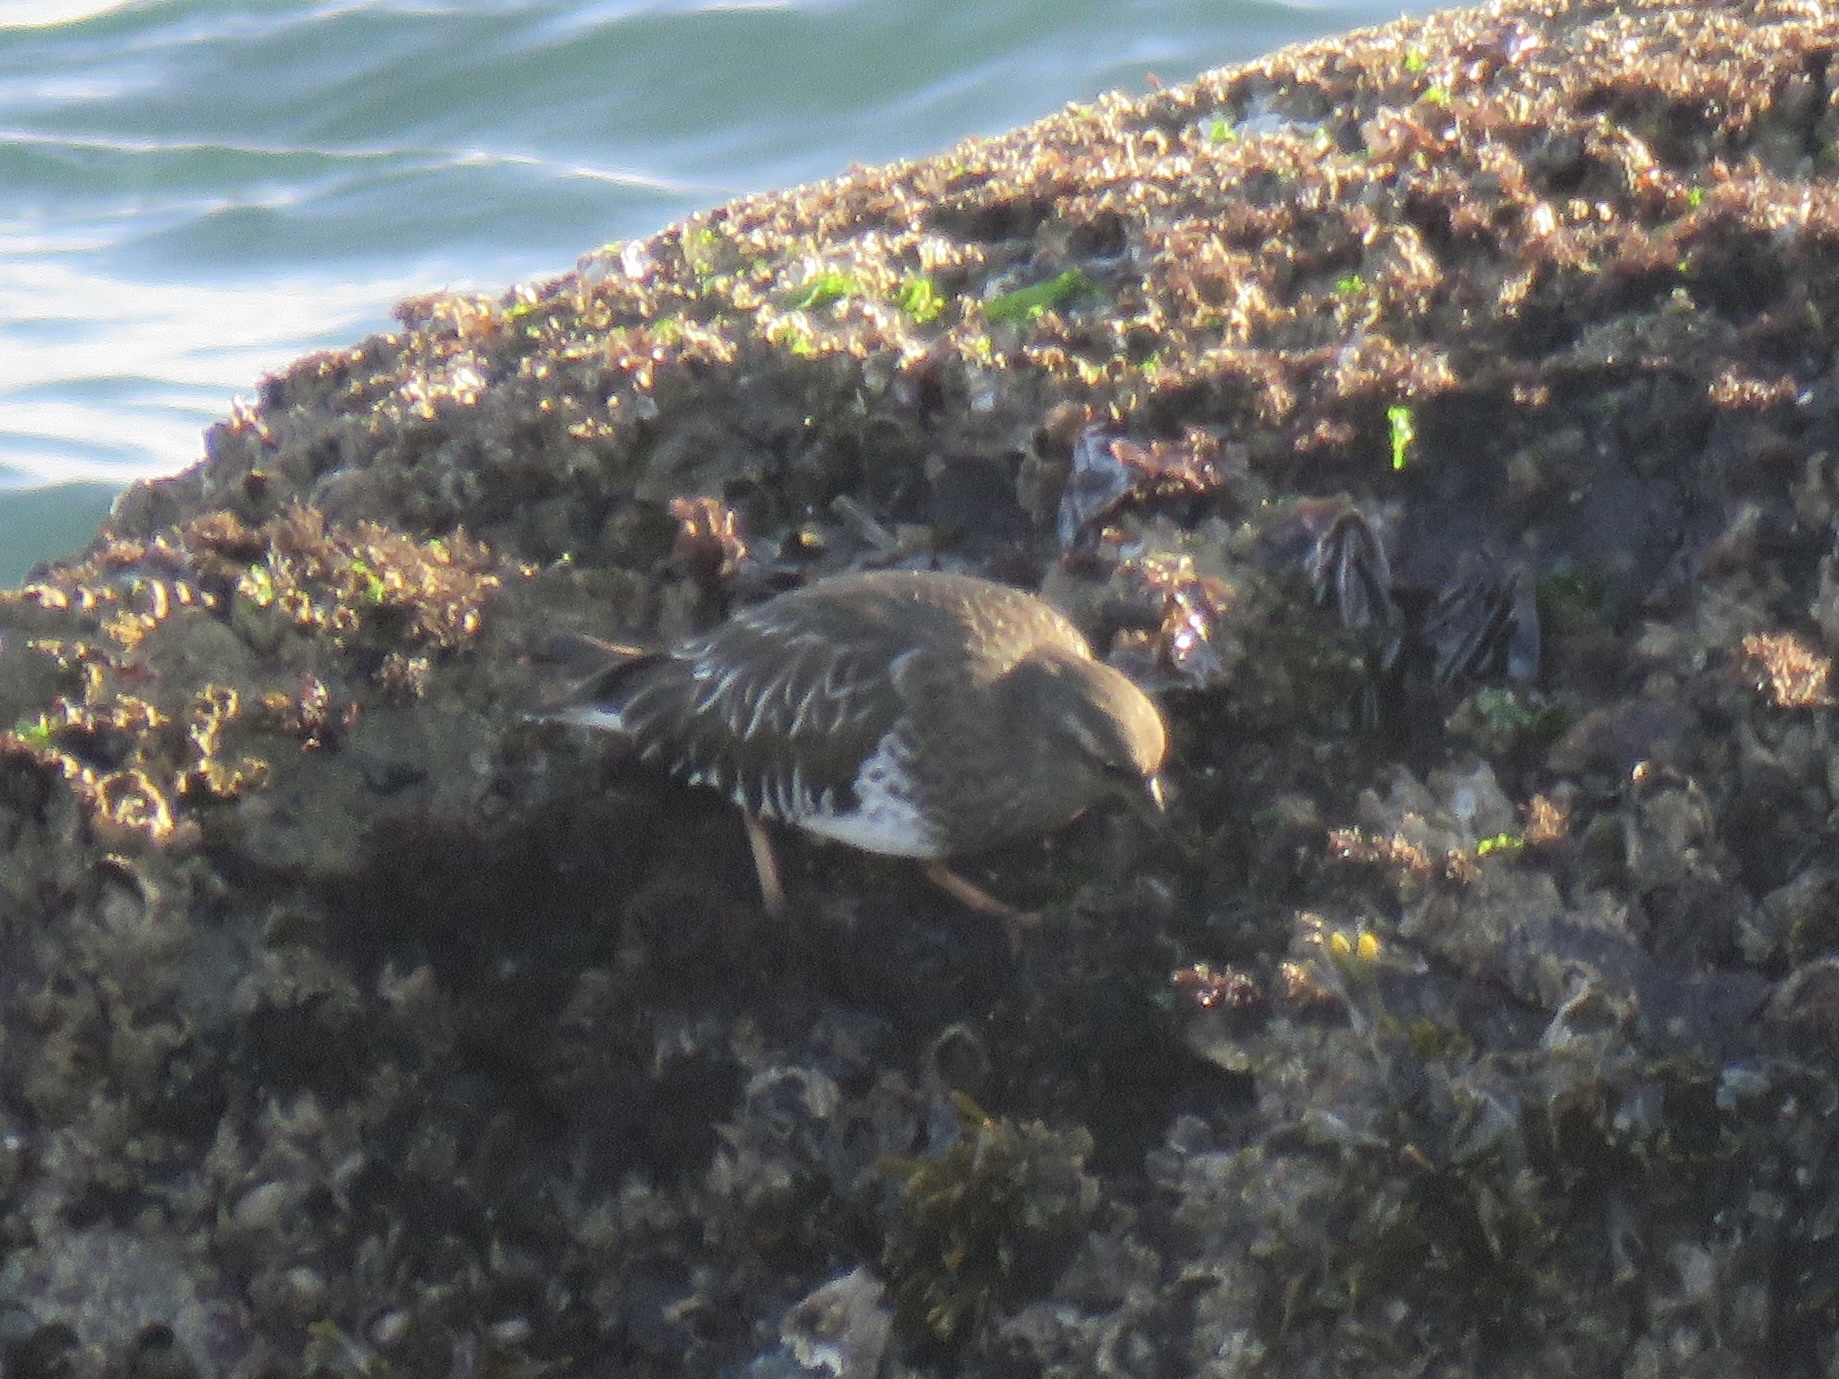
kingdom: Animalia
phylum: Chordata
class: Aves
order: Charadriiformes
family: Scolopacidae
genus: Arenaria
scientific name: Arenaria melanocephala
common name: Black turnstone
